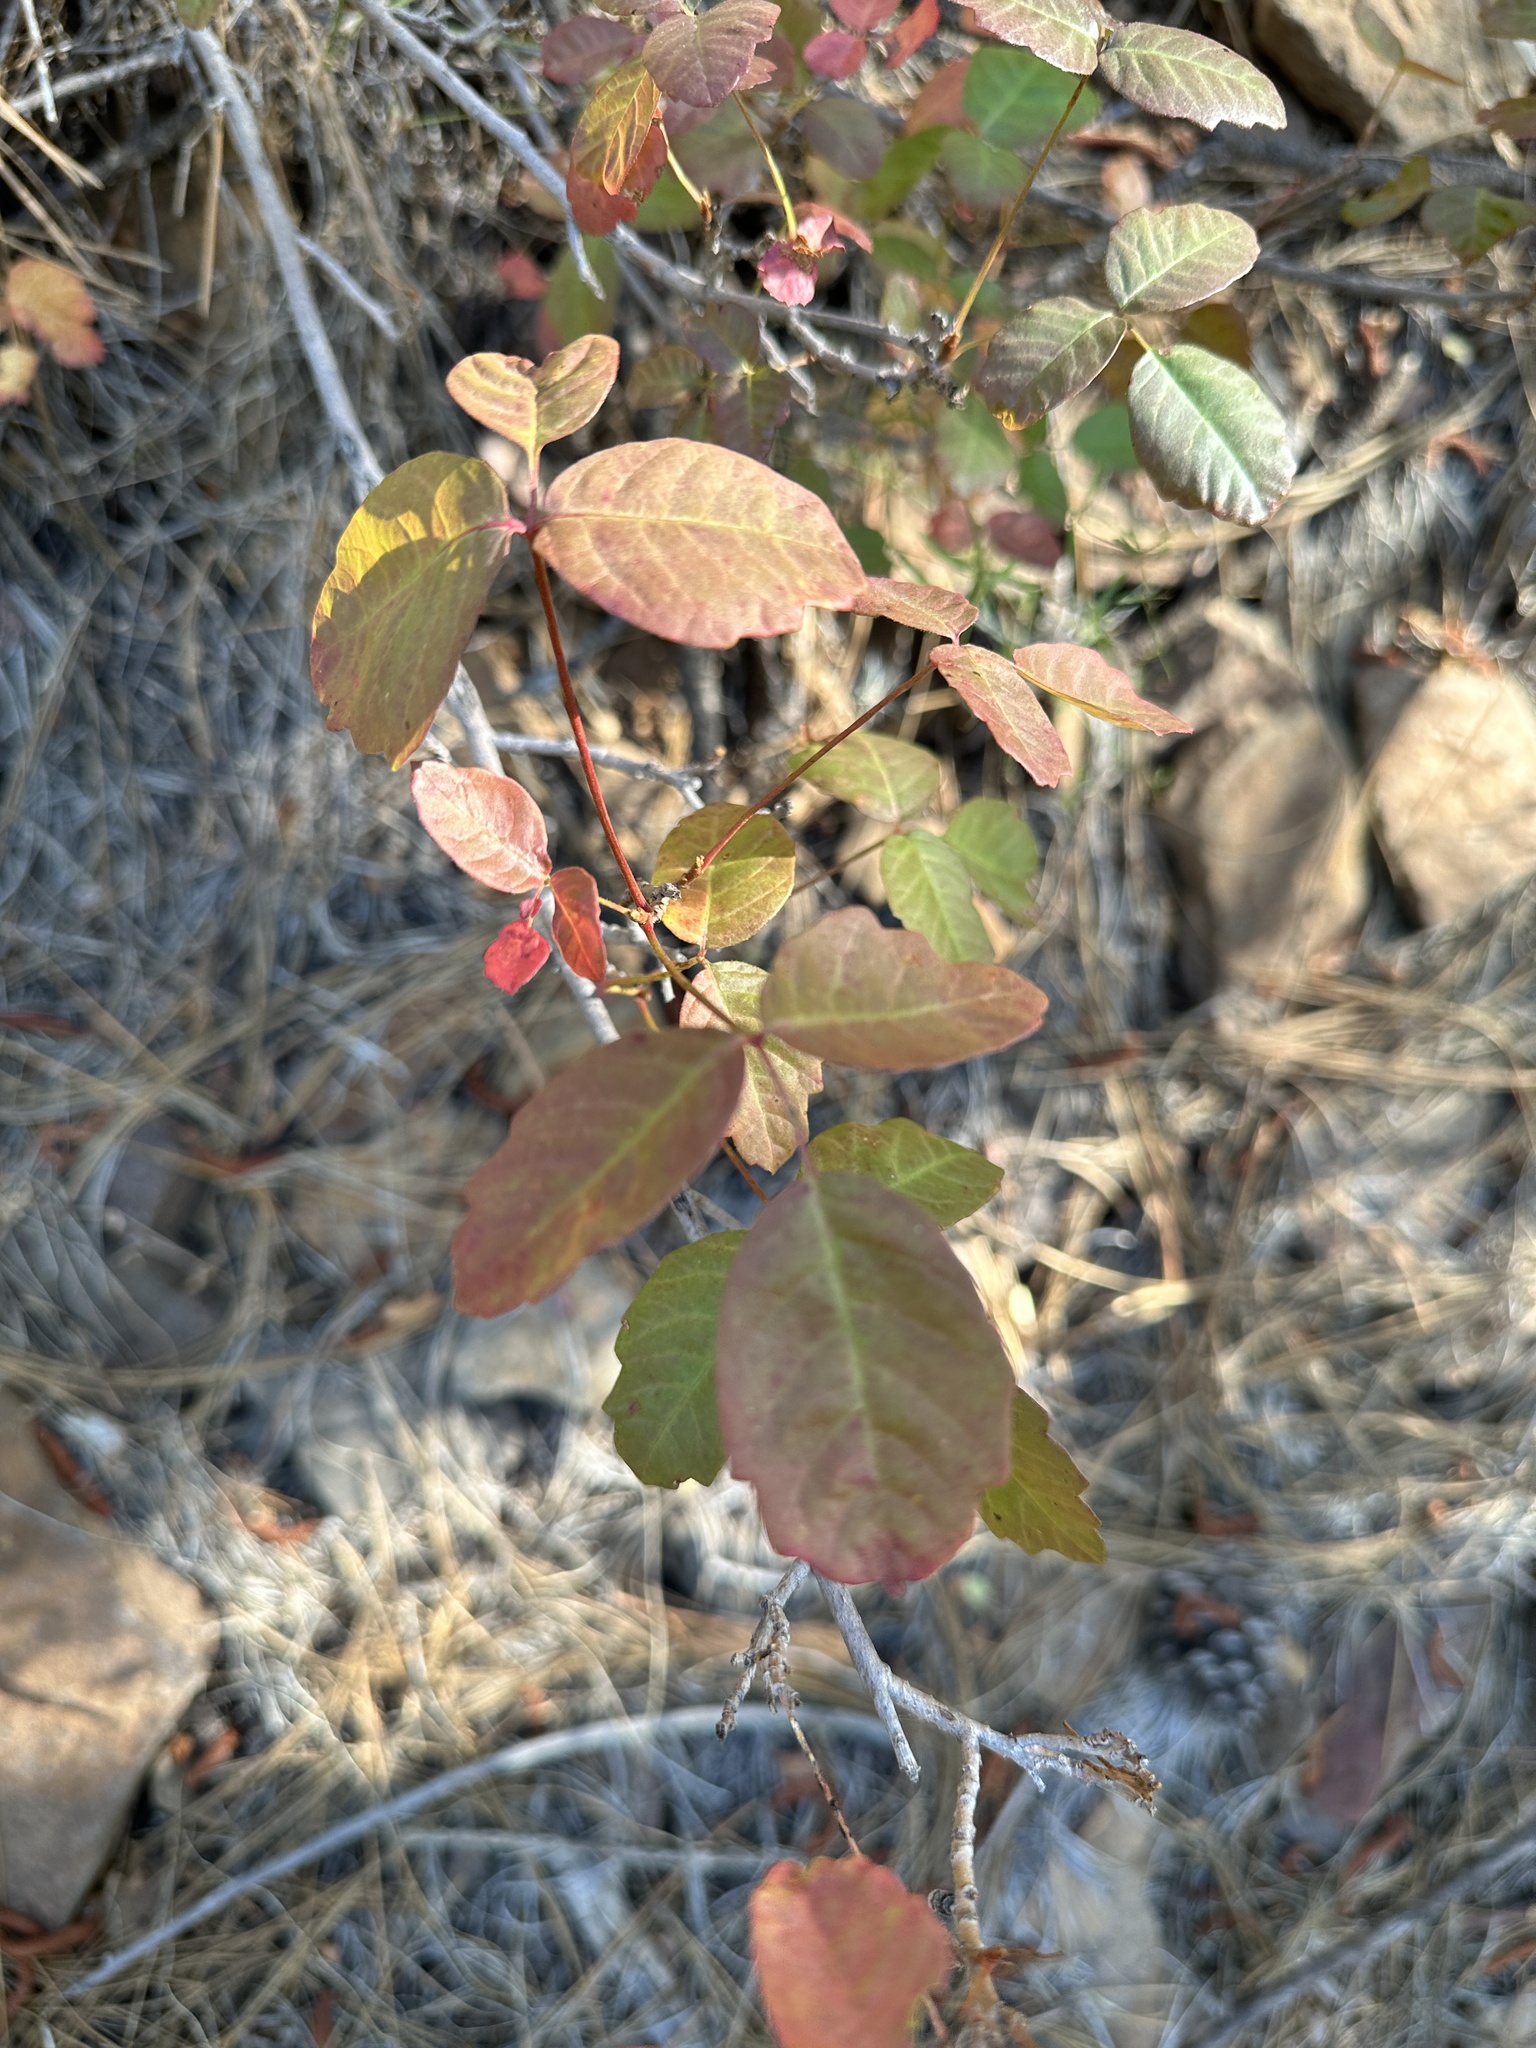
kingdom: Plantae
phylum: Tracheophyta
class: Magnoliopsida
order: Sapindales
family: Anacardiaceae
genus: Toxicodendron
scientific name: Toxicodendron diversilobum
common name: Pacific poison-oak
